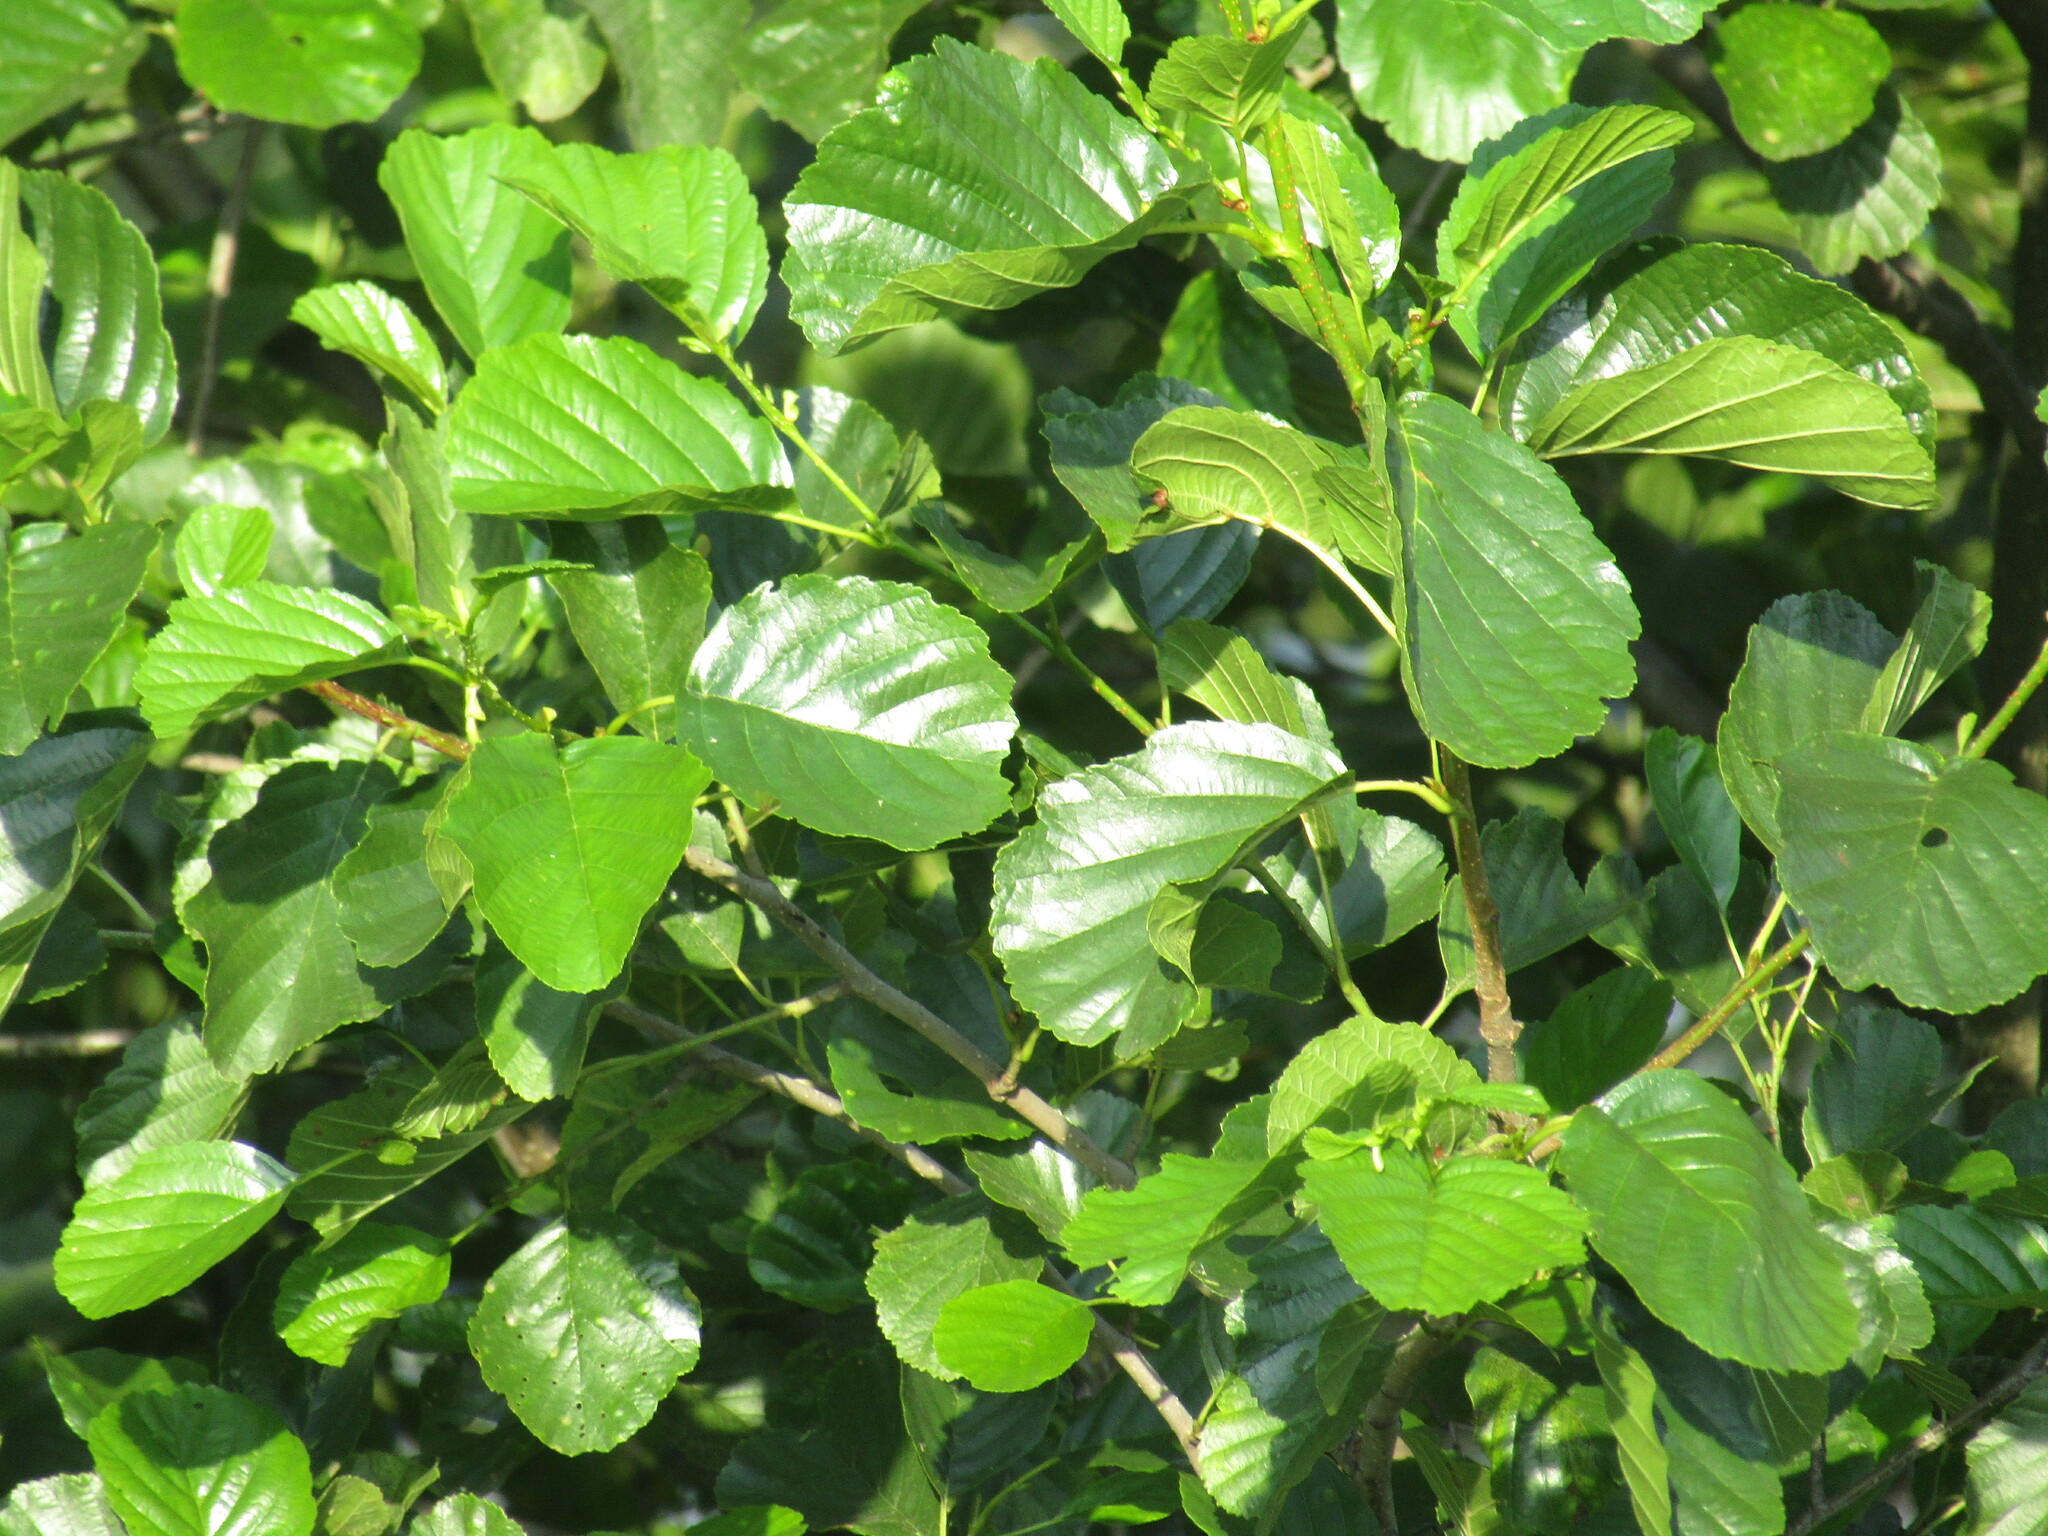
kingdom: Plantae
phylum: Tracheophyta
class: Magnoliopsida
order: Fagales
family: Betulaceae
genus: Alnus
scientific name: Alnus glutinosa
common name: Black alder
